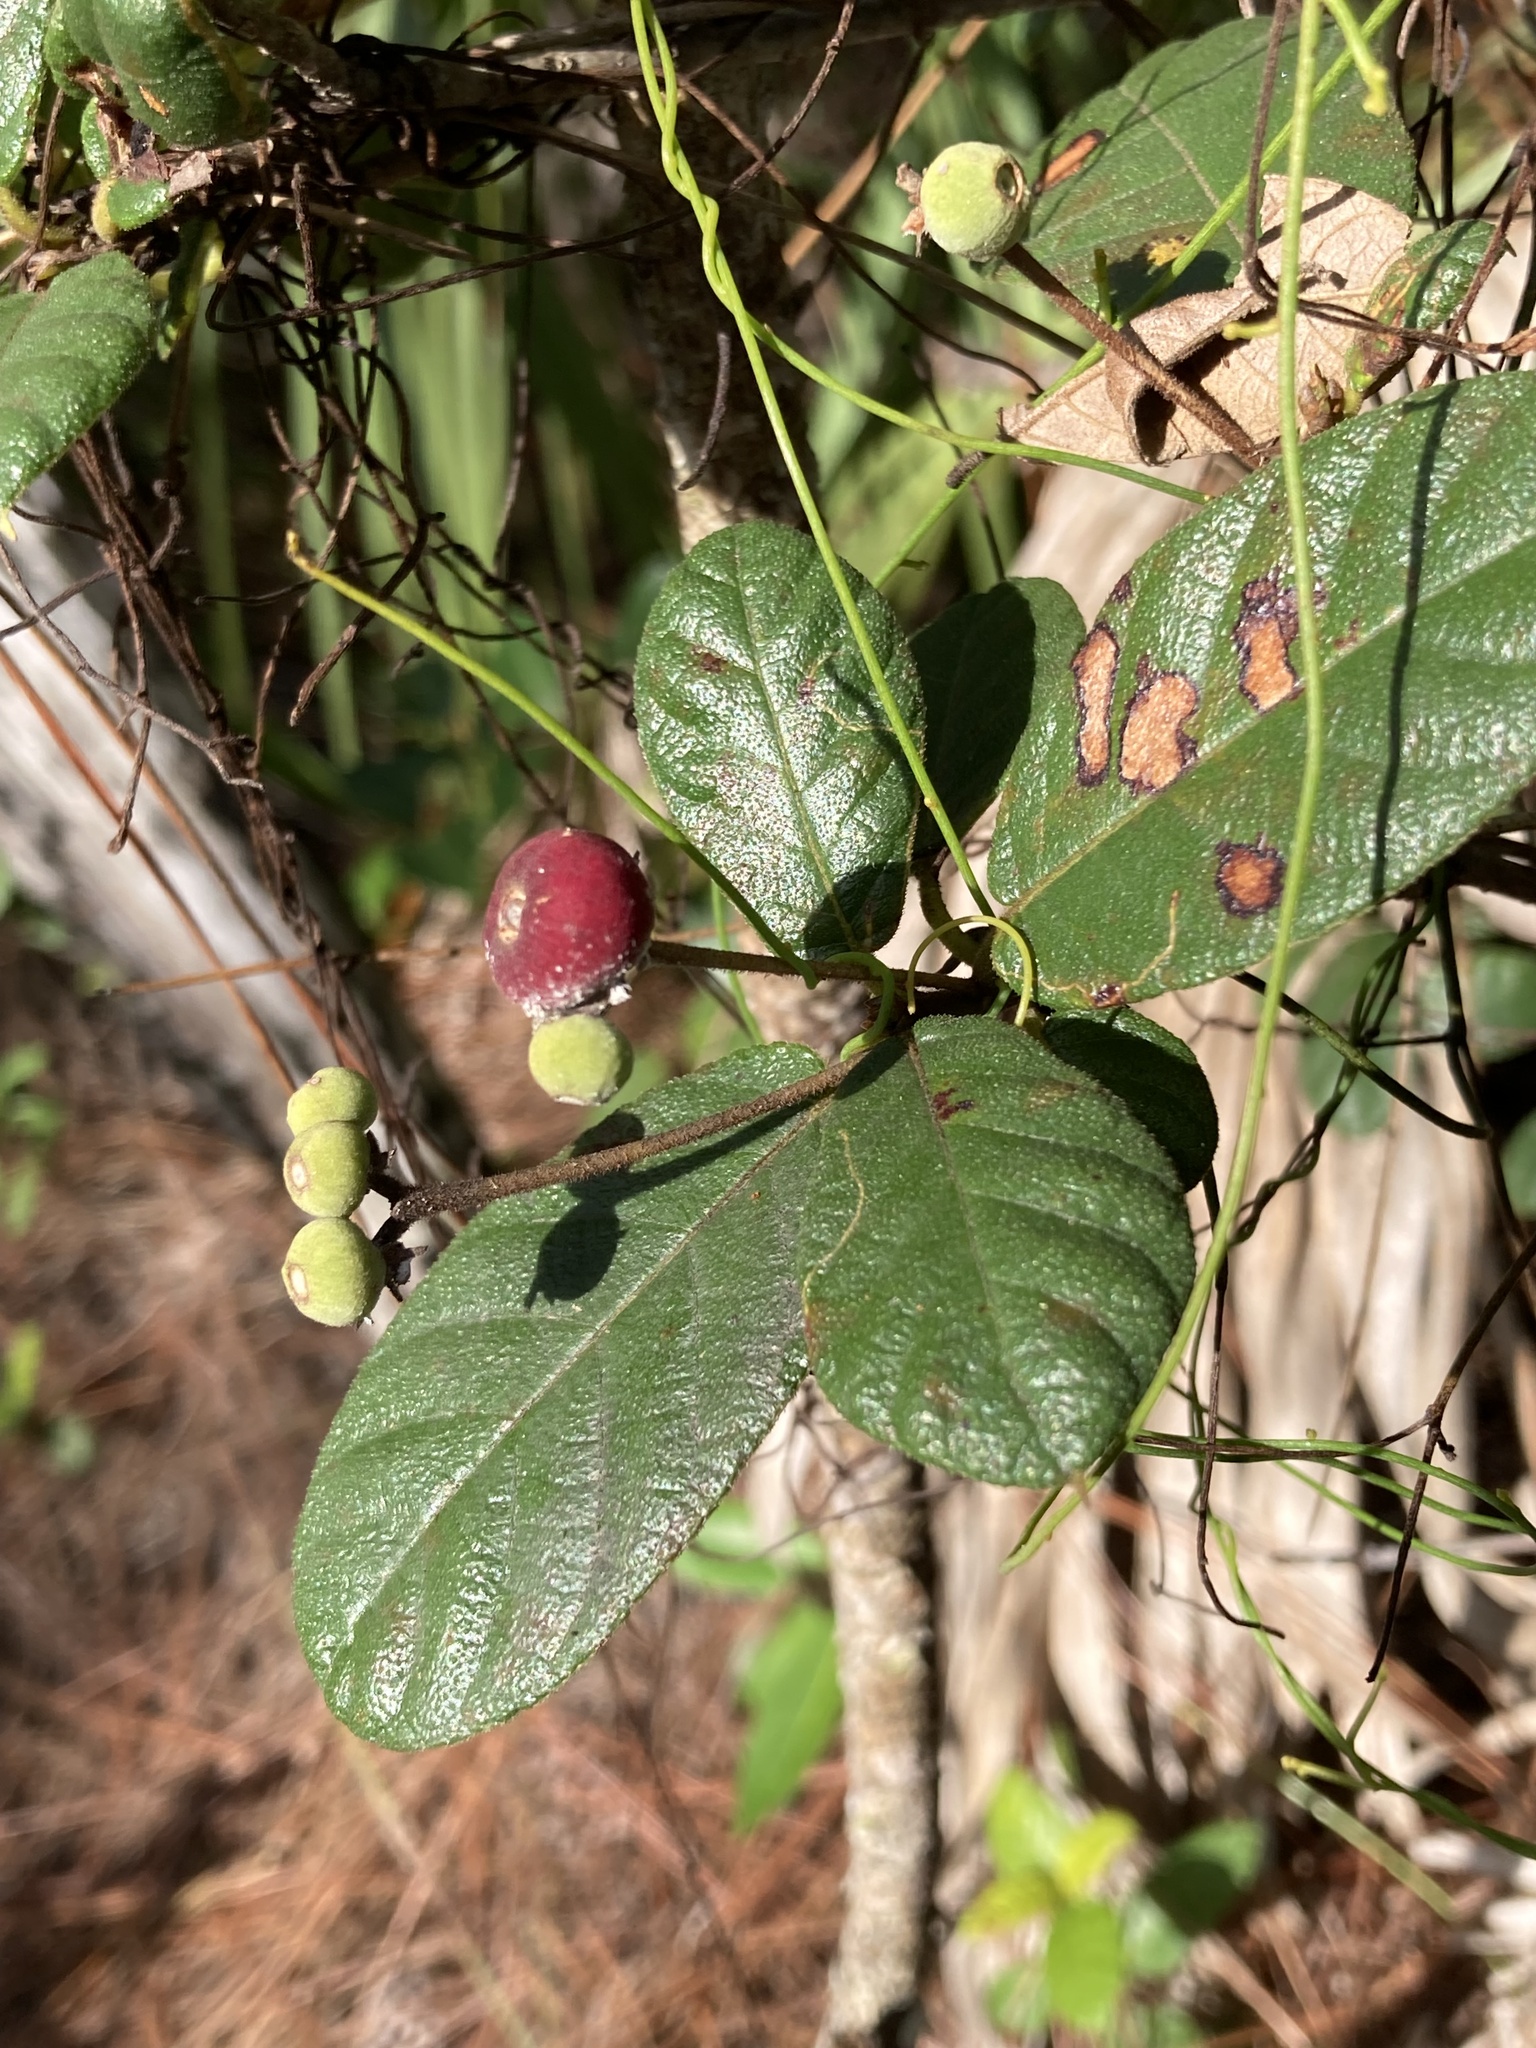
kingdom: Plantae
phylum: Tracheophyta
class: Magnoliopsida
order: Gentianales
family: Rubiaceae
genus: Guettarda
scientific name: Guettarda scabra
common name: Pigeon bay
